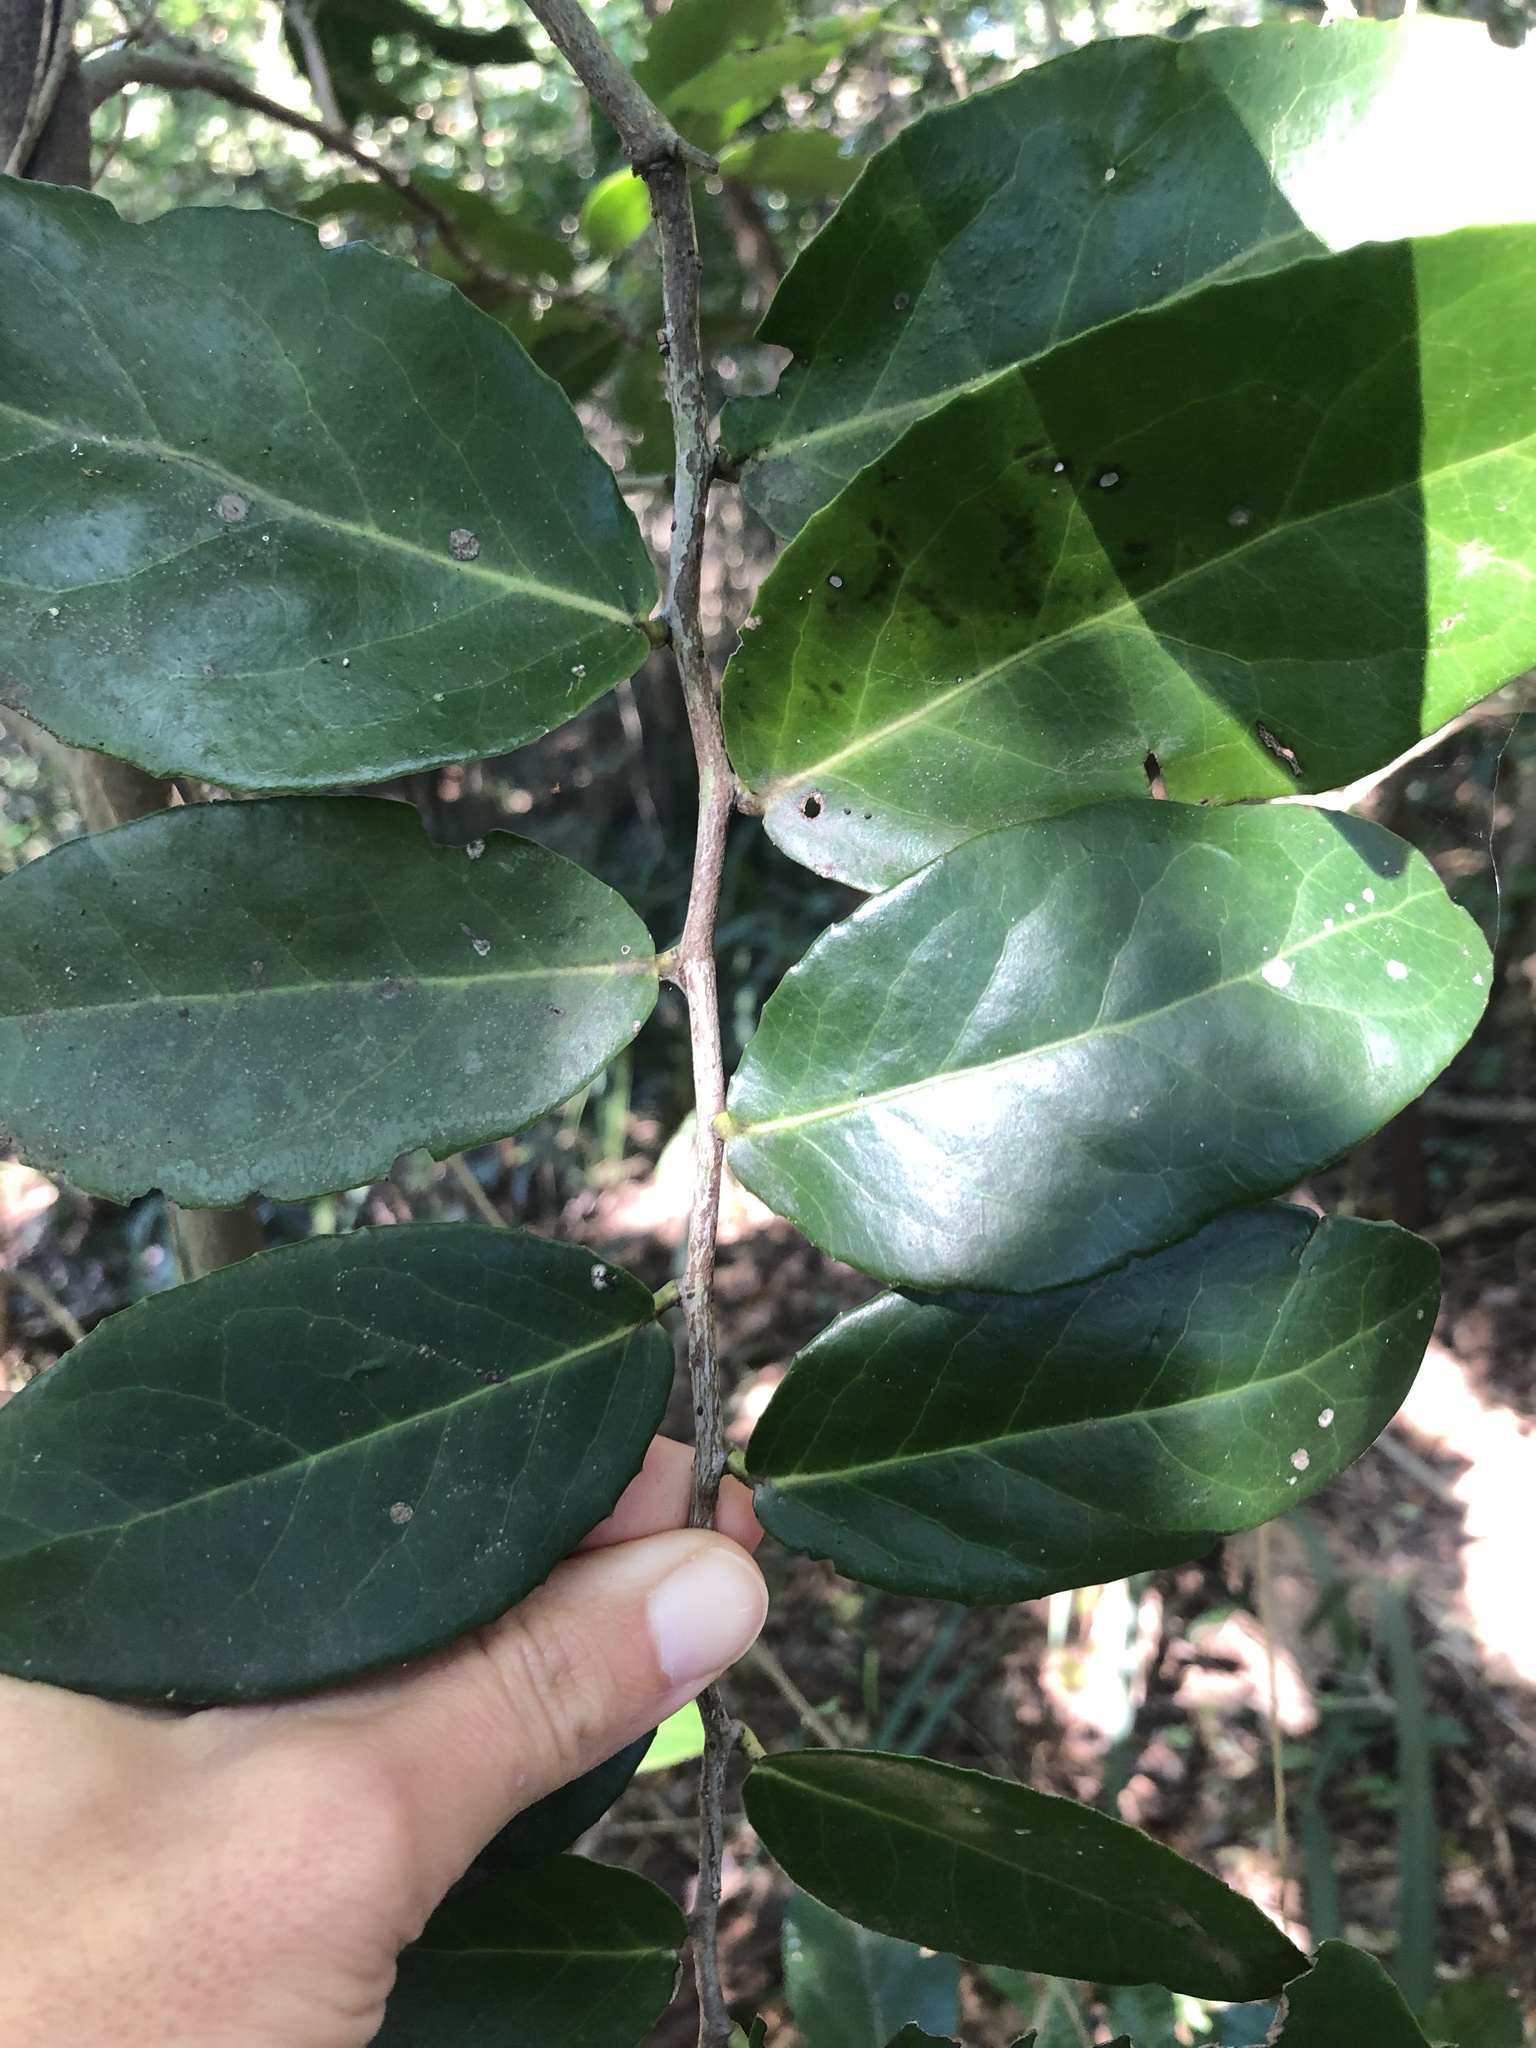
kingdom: Plantae
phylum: Tracheophyta
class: Magnoliopsida
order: Celastrales
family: Celastraceae
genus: Mystroxylon
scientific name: Mystroxylon aethiopicum
